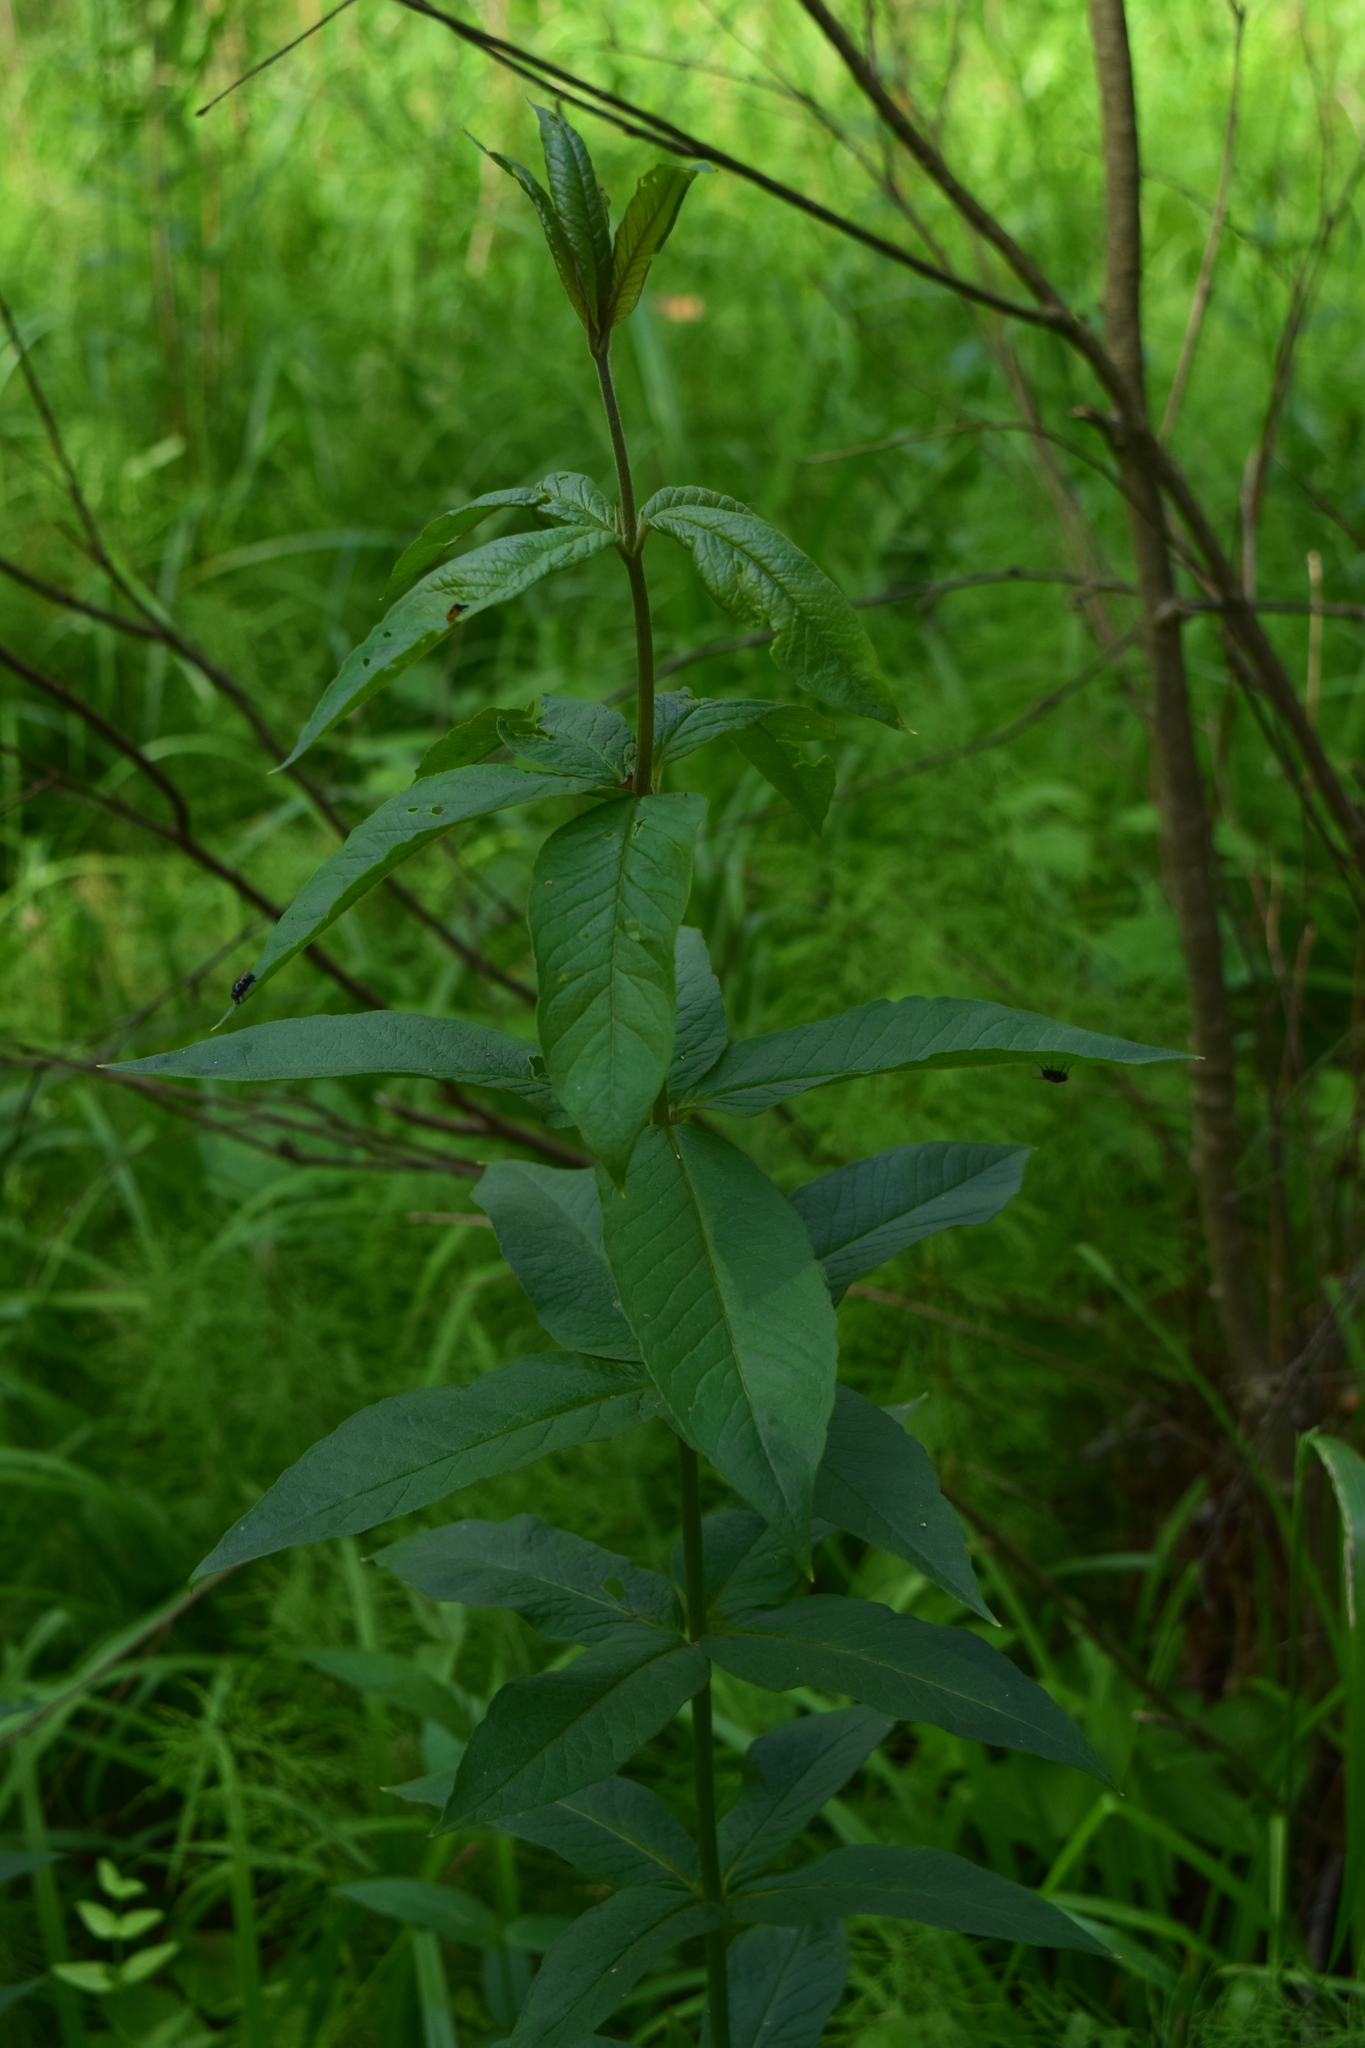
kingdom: Plantae
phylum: Tracheophyta
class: Magnoliopsida
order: Ericales
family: Primulaceae
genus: Lysimachia
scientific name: Lysimachia vulgaris
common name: Yellow loosestrife
